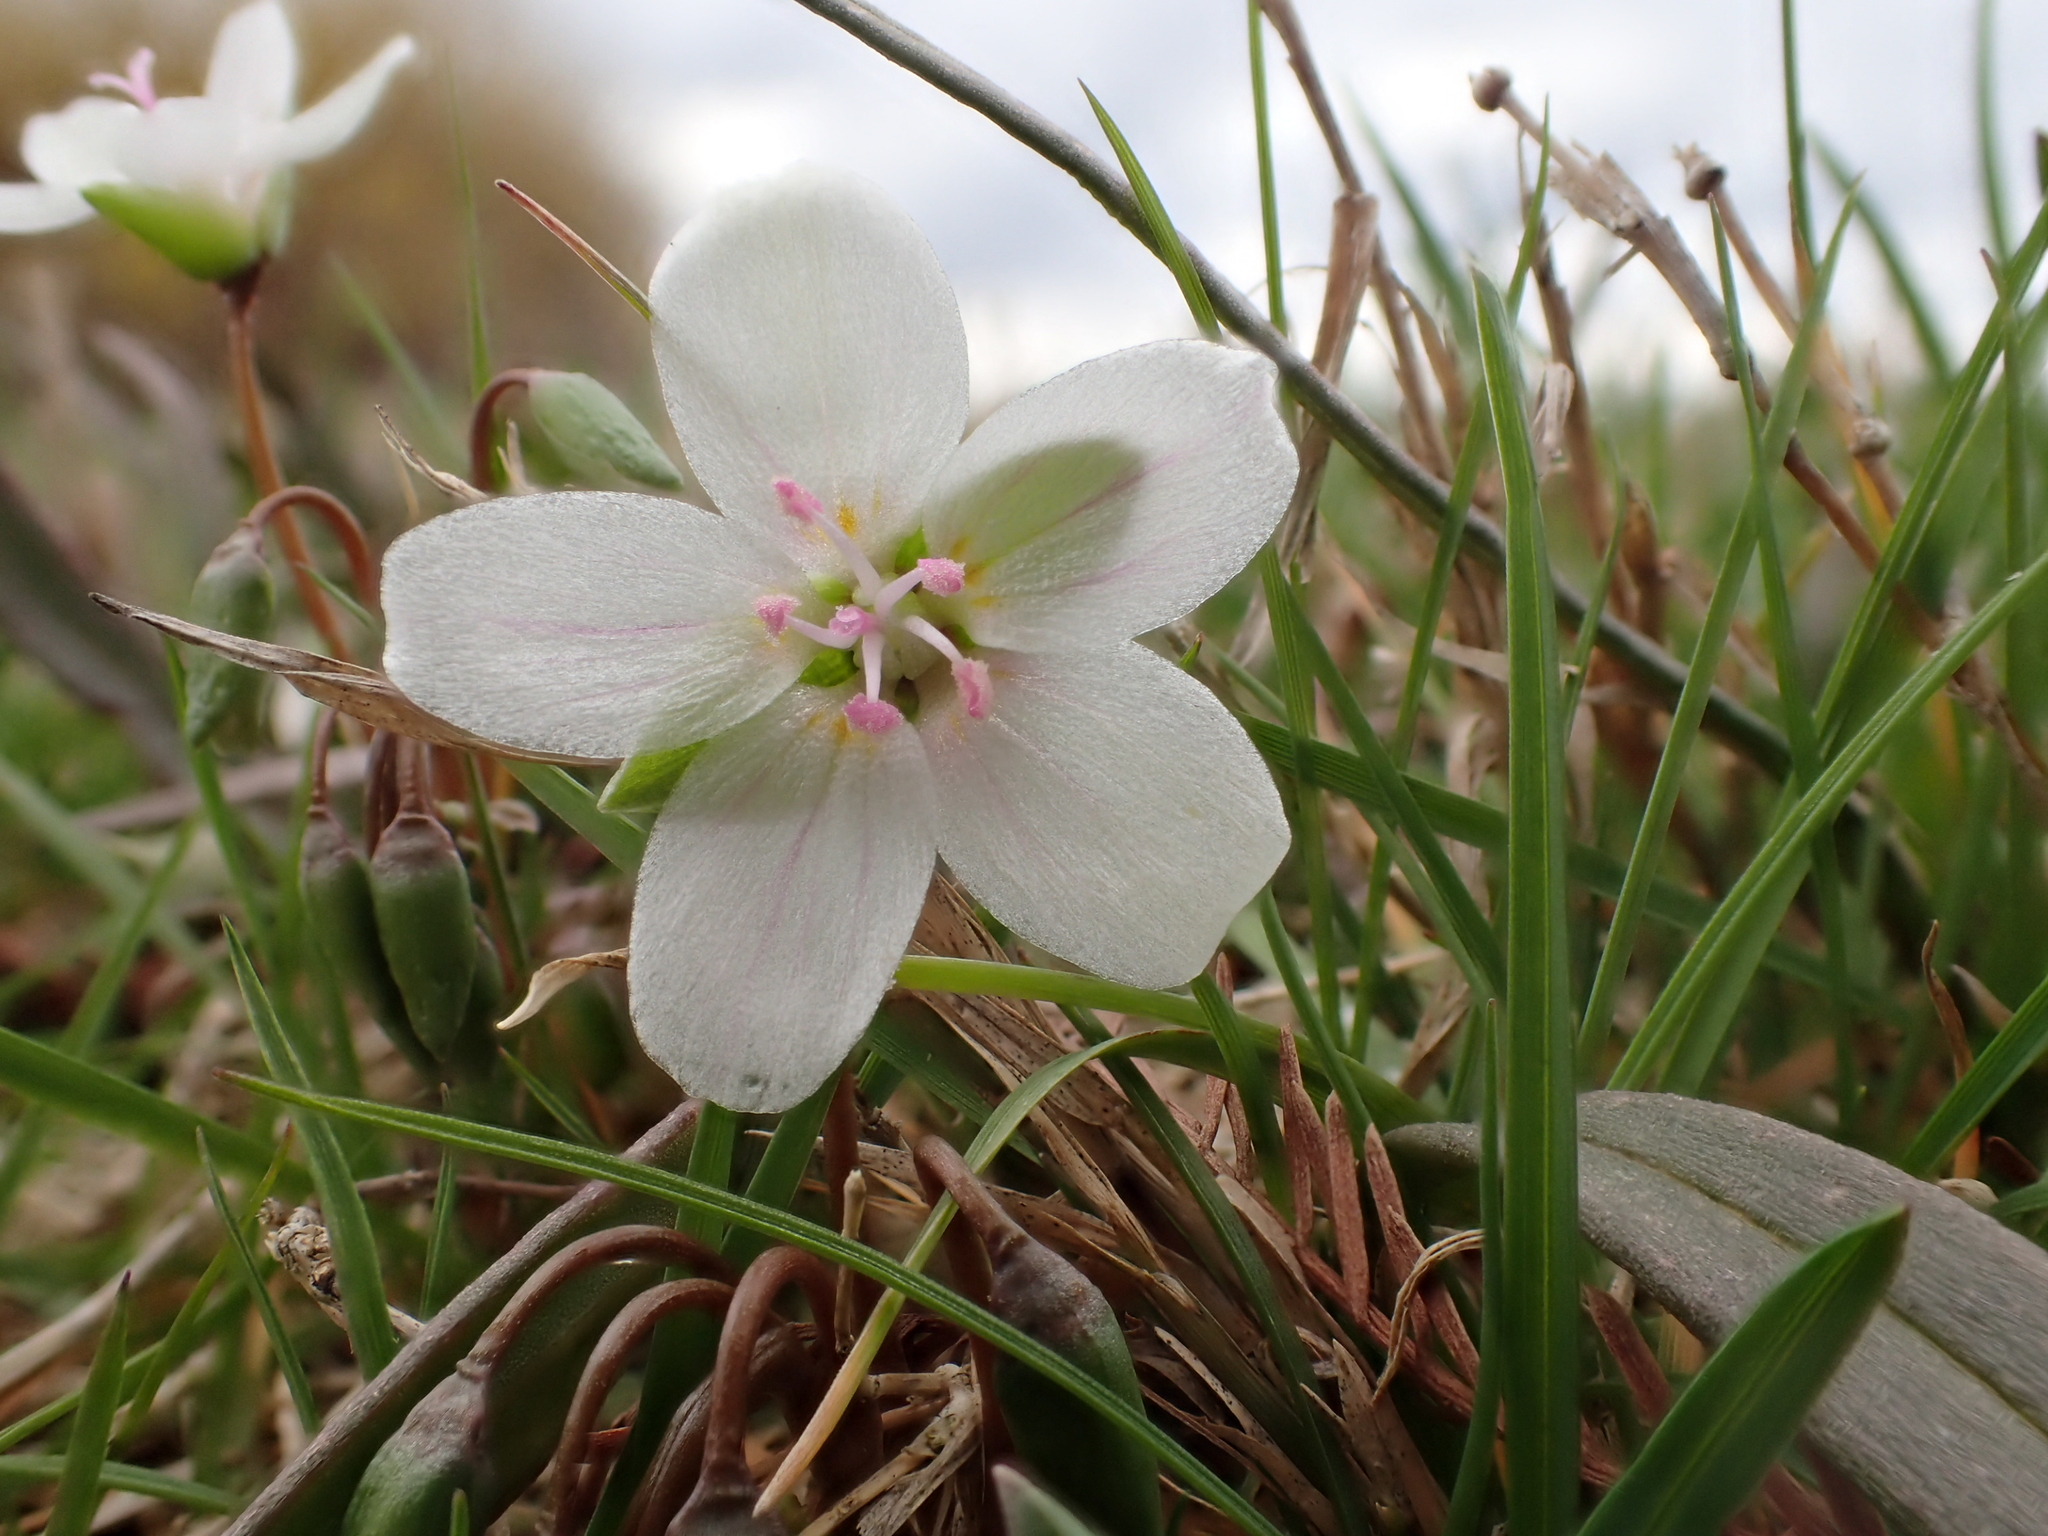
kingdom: Plantae
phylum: Tracheophyta
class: Magnoliopsida
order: Caryophyllales
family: Montiaceae
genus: Claytonia
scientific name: Claytonia virginica
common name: Virginia springbeauty
